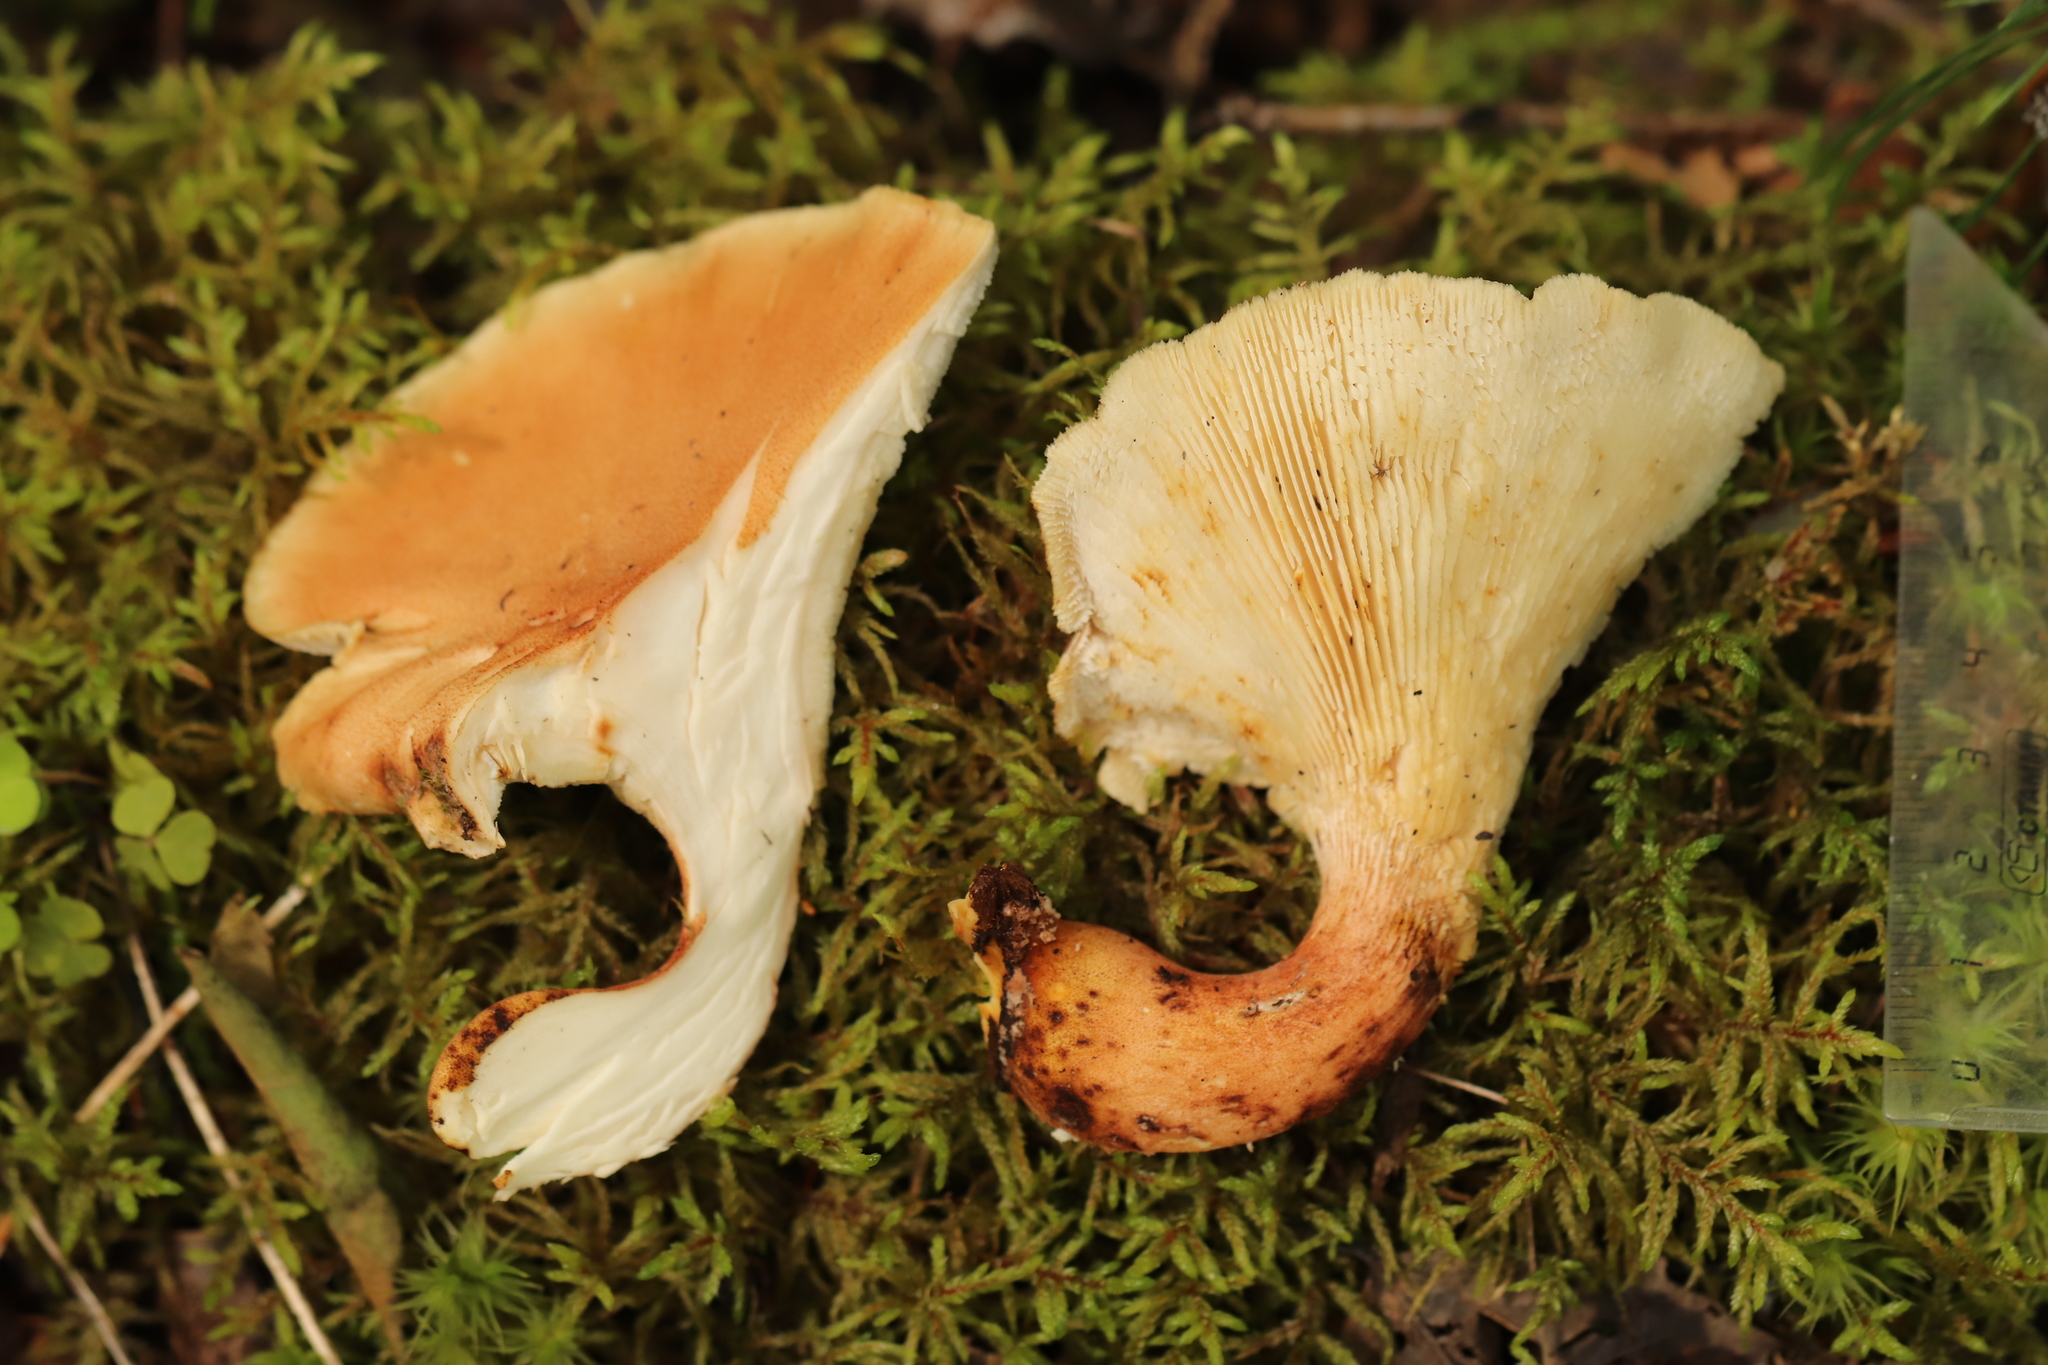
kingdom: Fungi
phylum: Basidiomycota
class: Agaricomycetes
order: Gloeophyllales
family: Gloeophyllaceae
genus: Neolentinus
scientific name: Neolentinus cyathiformis
